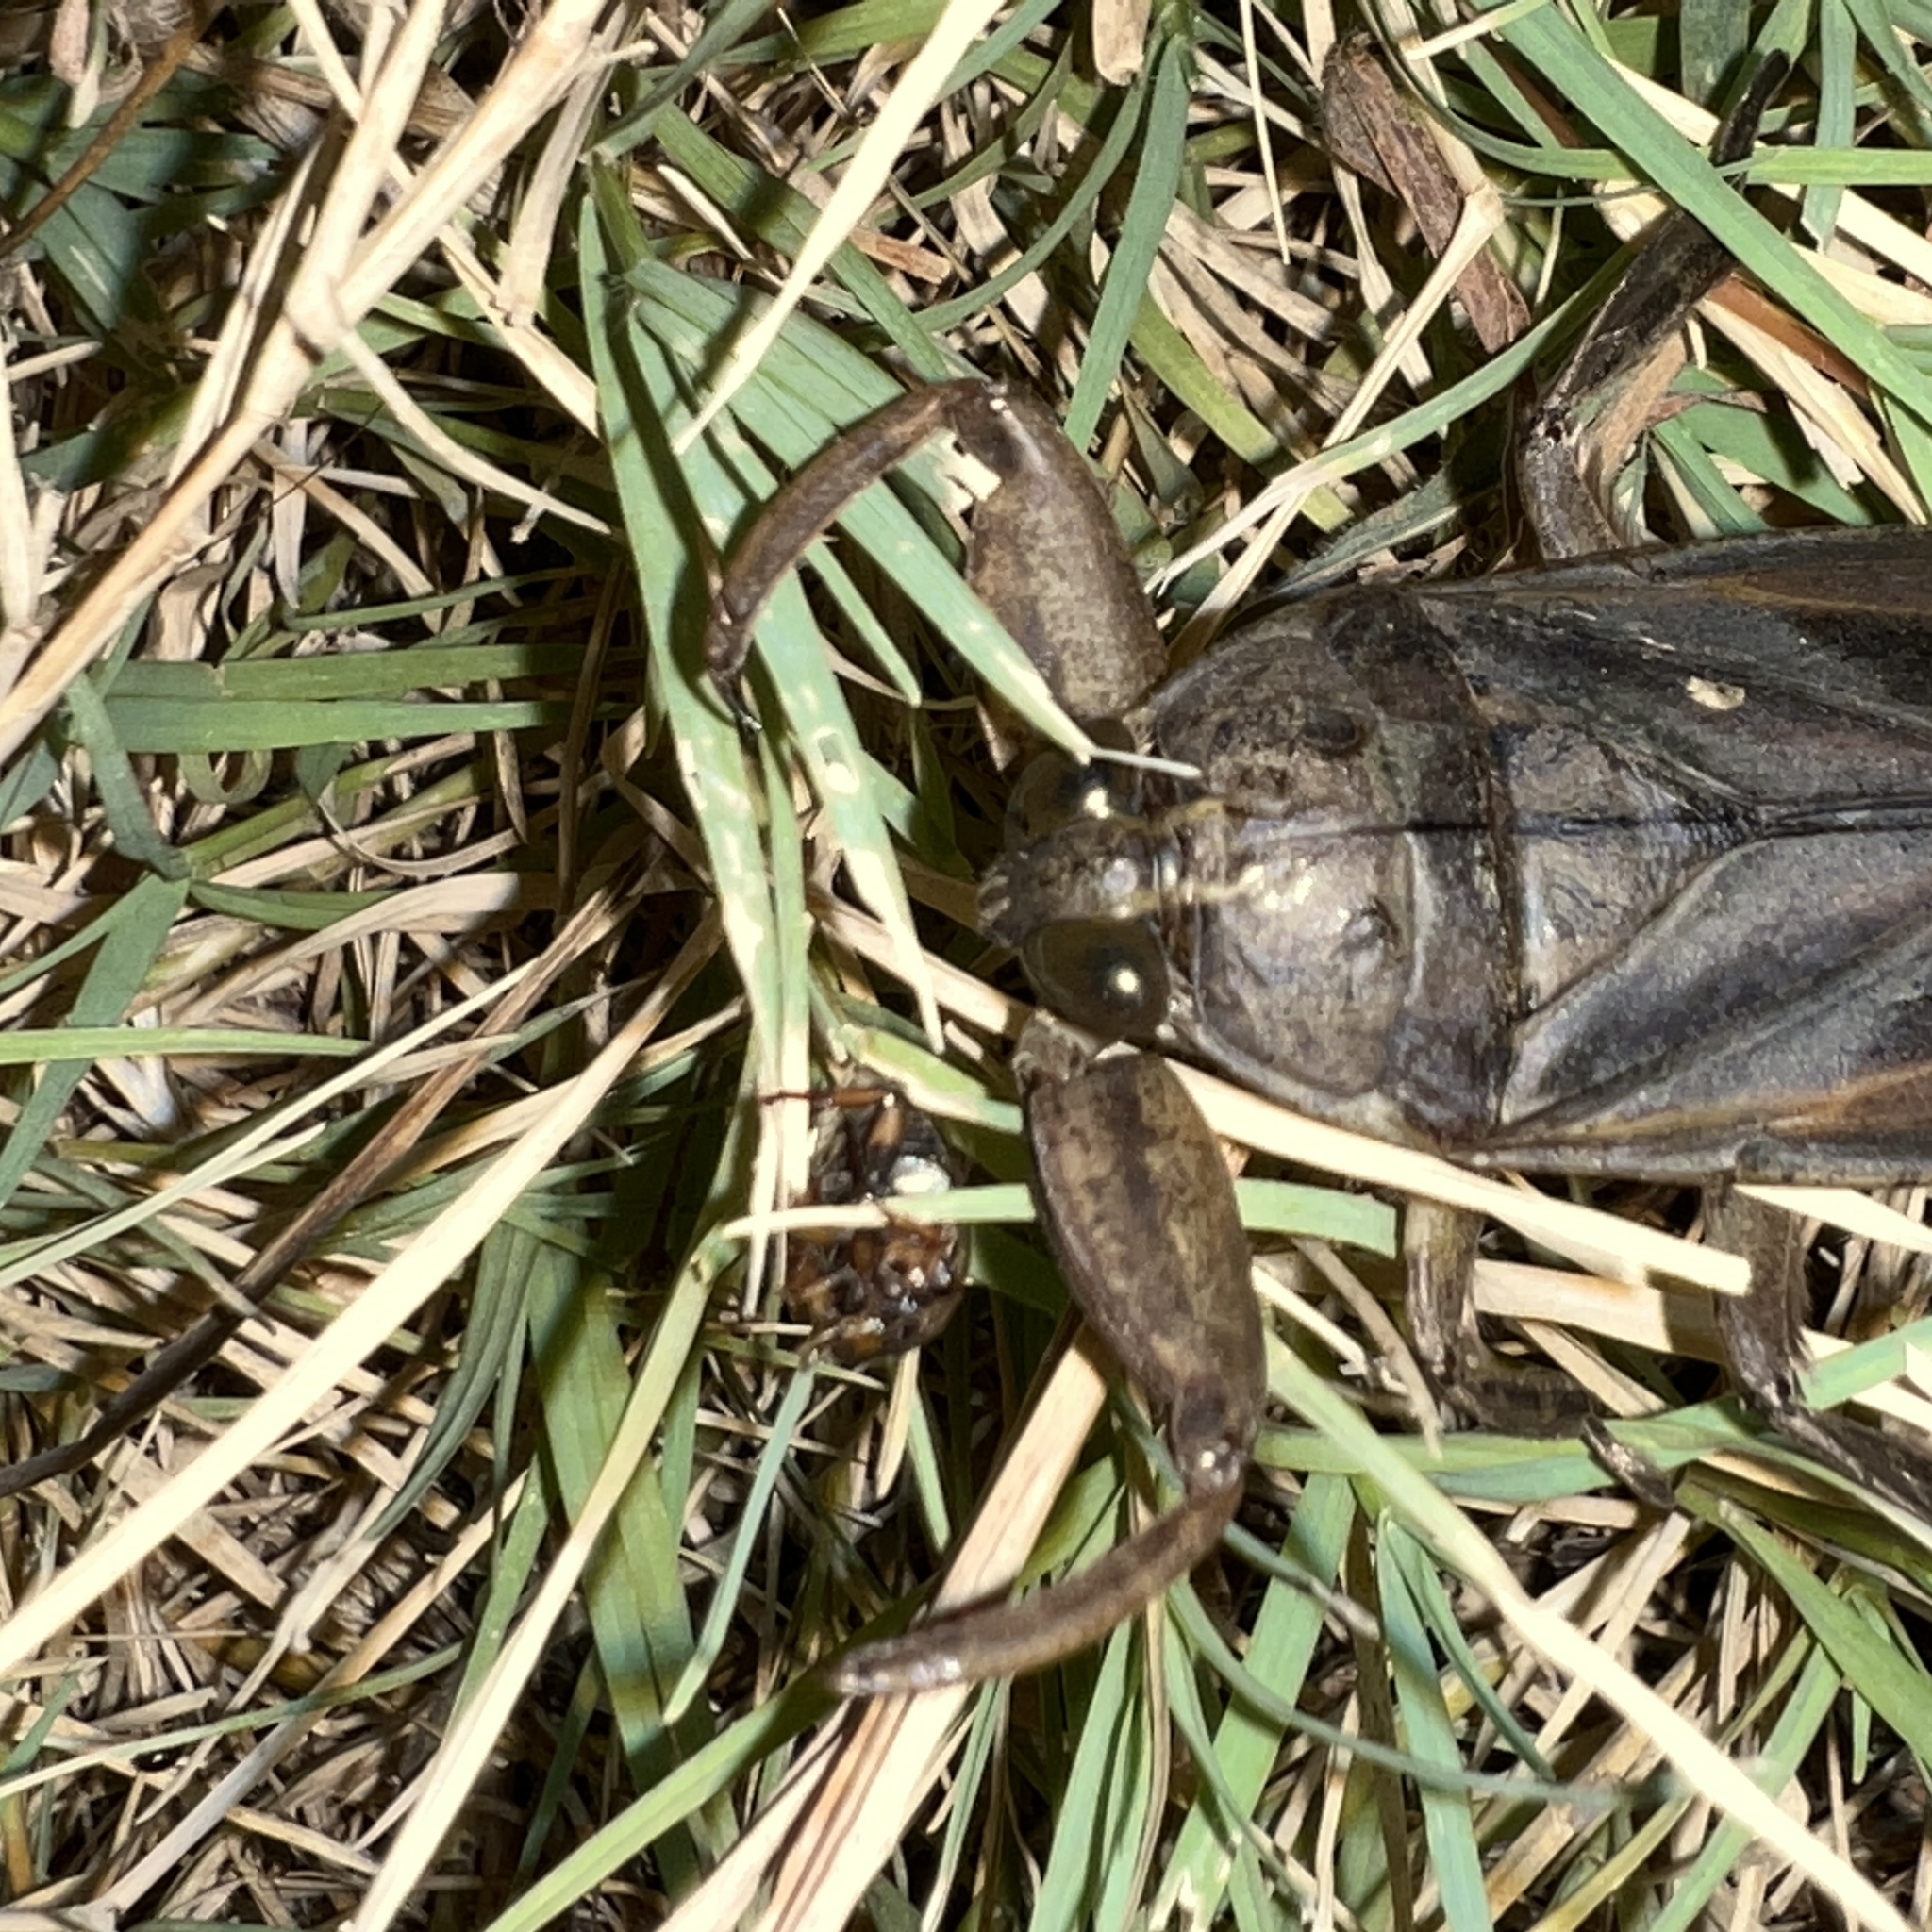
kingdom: Animalia
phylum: Arthropoda
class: Insecta
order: Hemiptera
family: Belostomatidae
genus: Lethocerus
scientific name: Lethocerus
